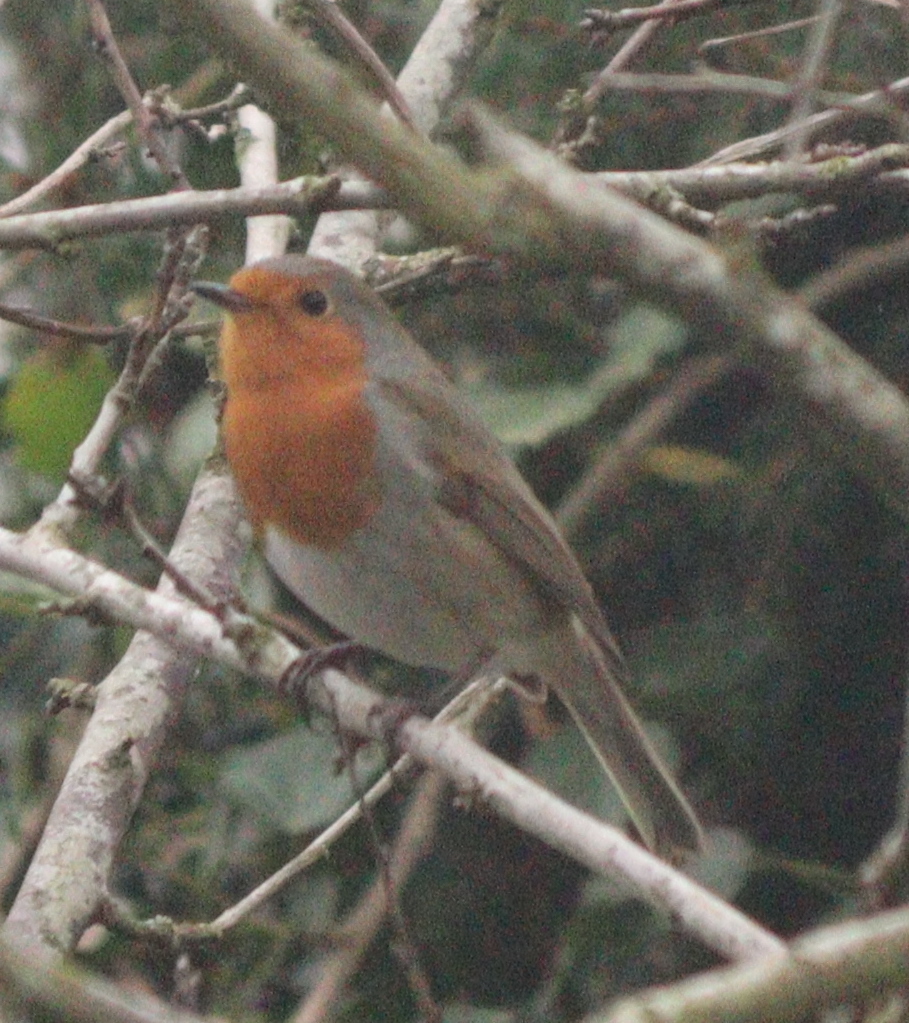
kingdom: Animalia
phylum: Chordata
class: Aves
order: Passeriformes
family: Muscicapidae
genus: Erithacus
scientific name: Erithacus rubecula
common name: European robin
